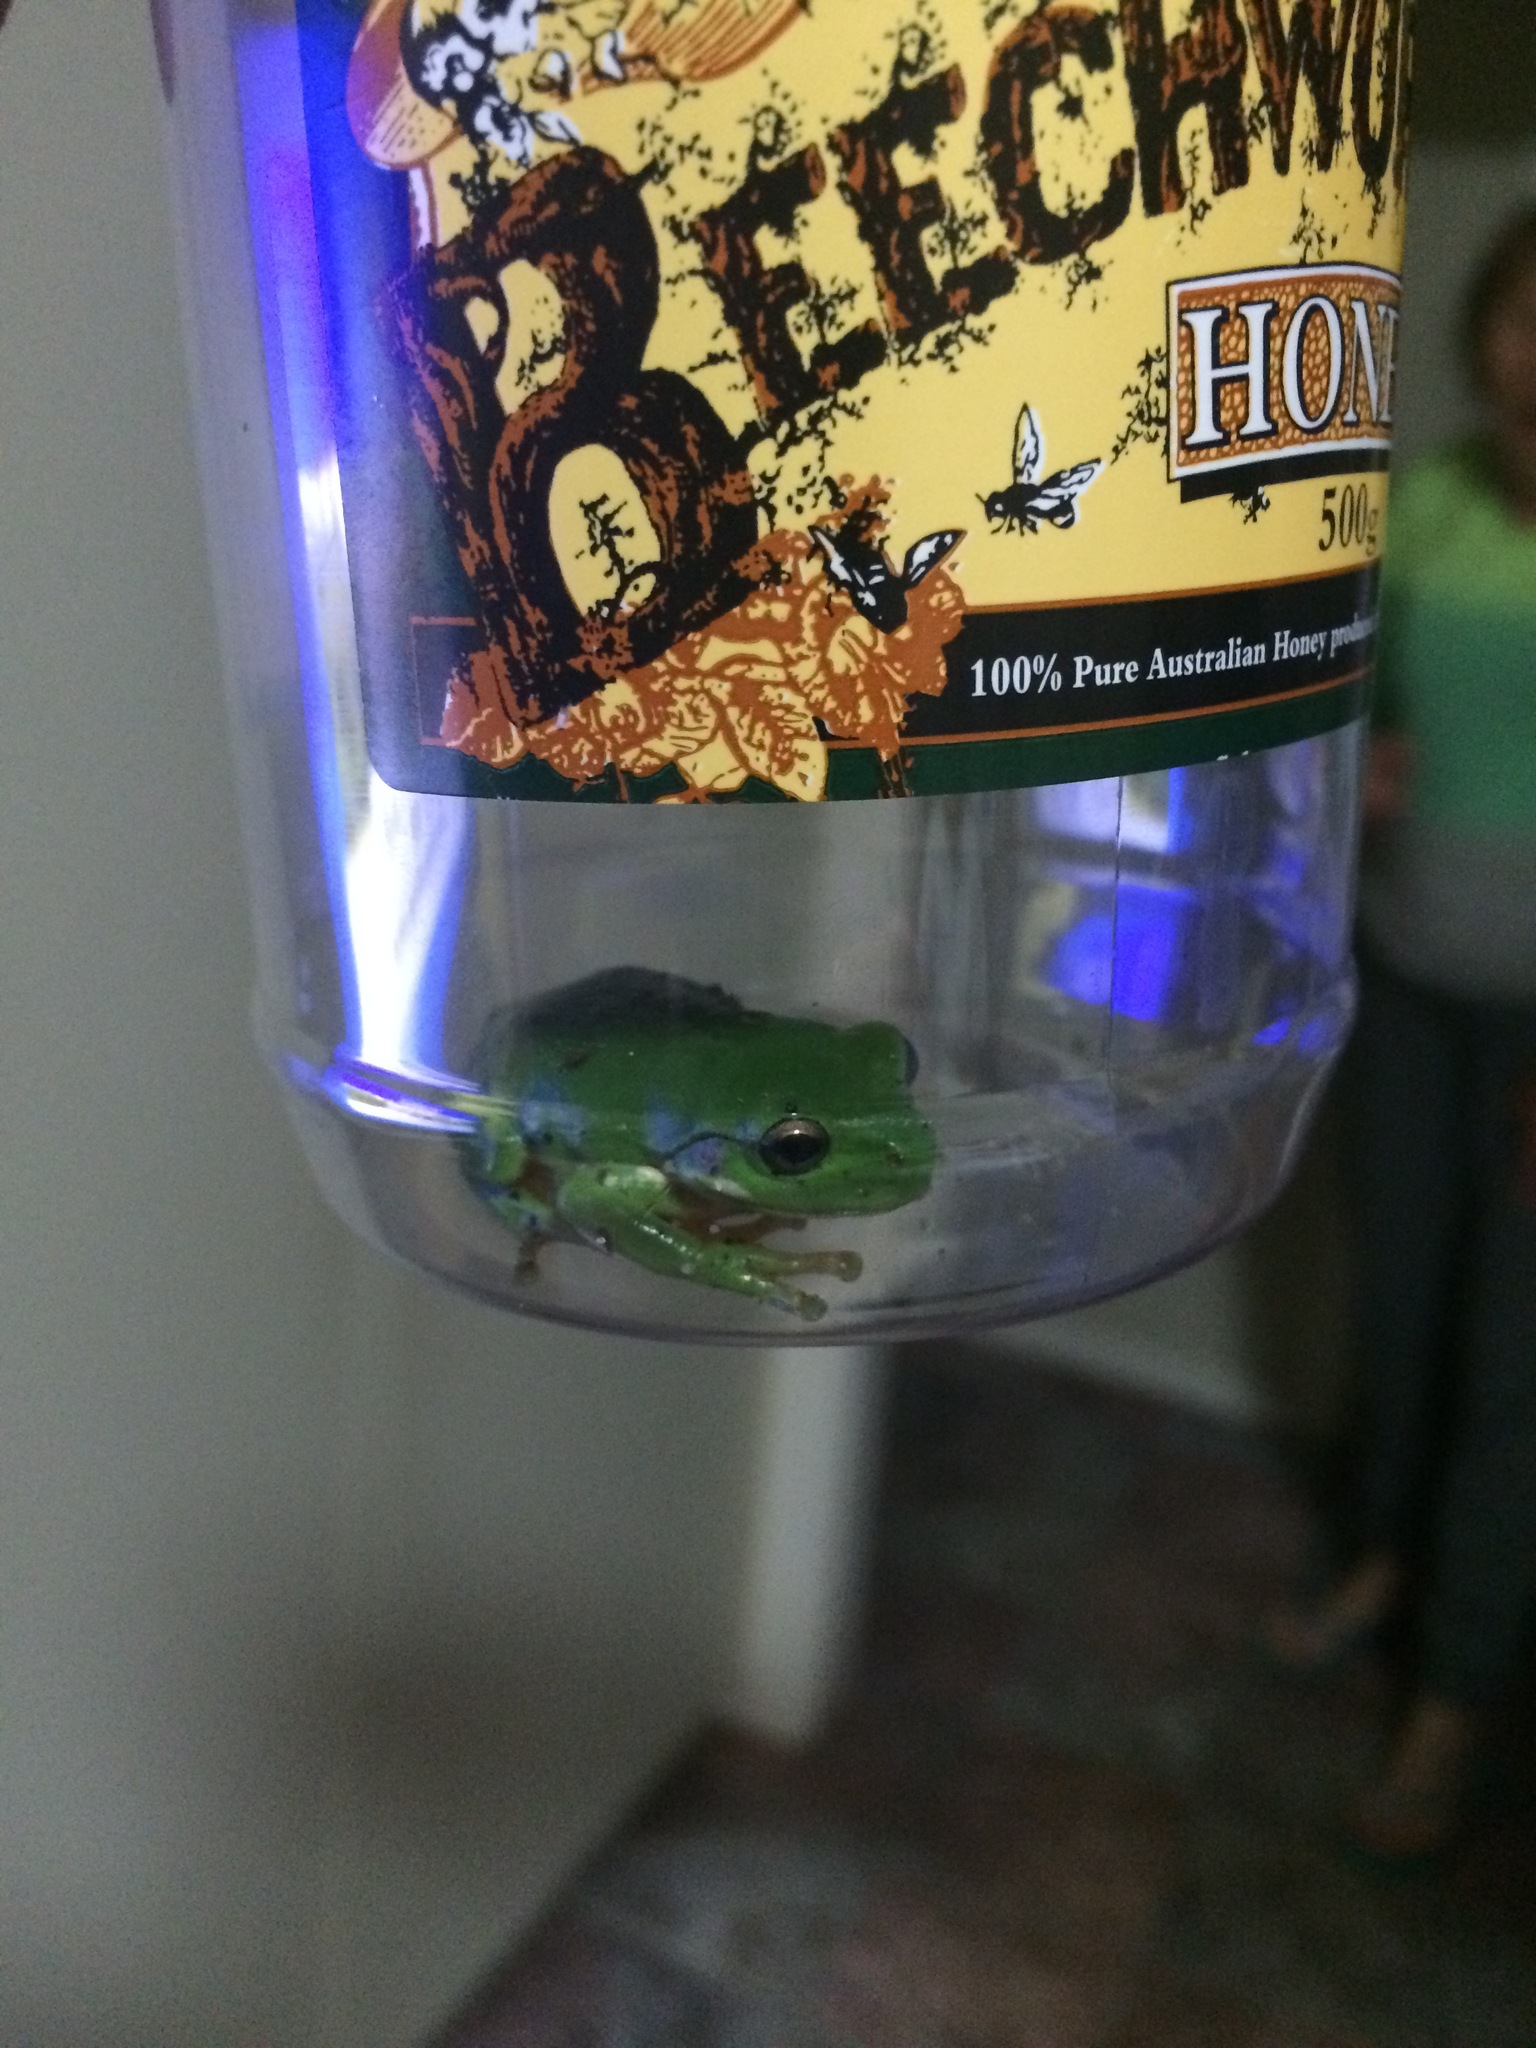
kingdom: Animalia
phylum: Chordata
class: Amphibia
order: Anura
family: Pelodryadidae
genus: Ranoidea
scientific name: Ranoidea caerulea
